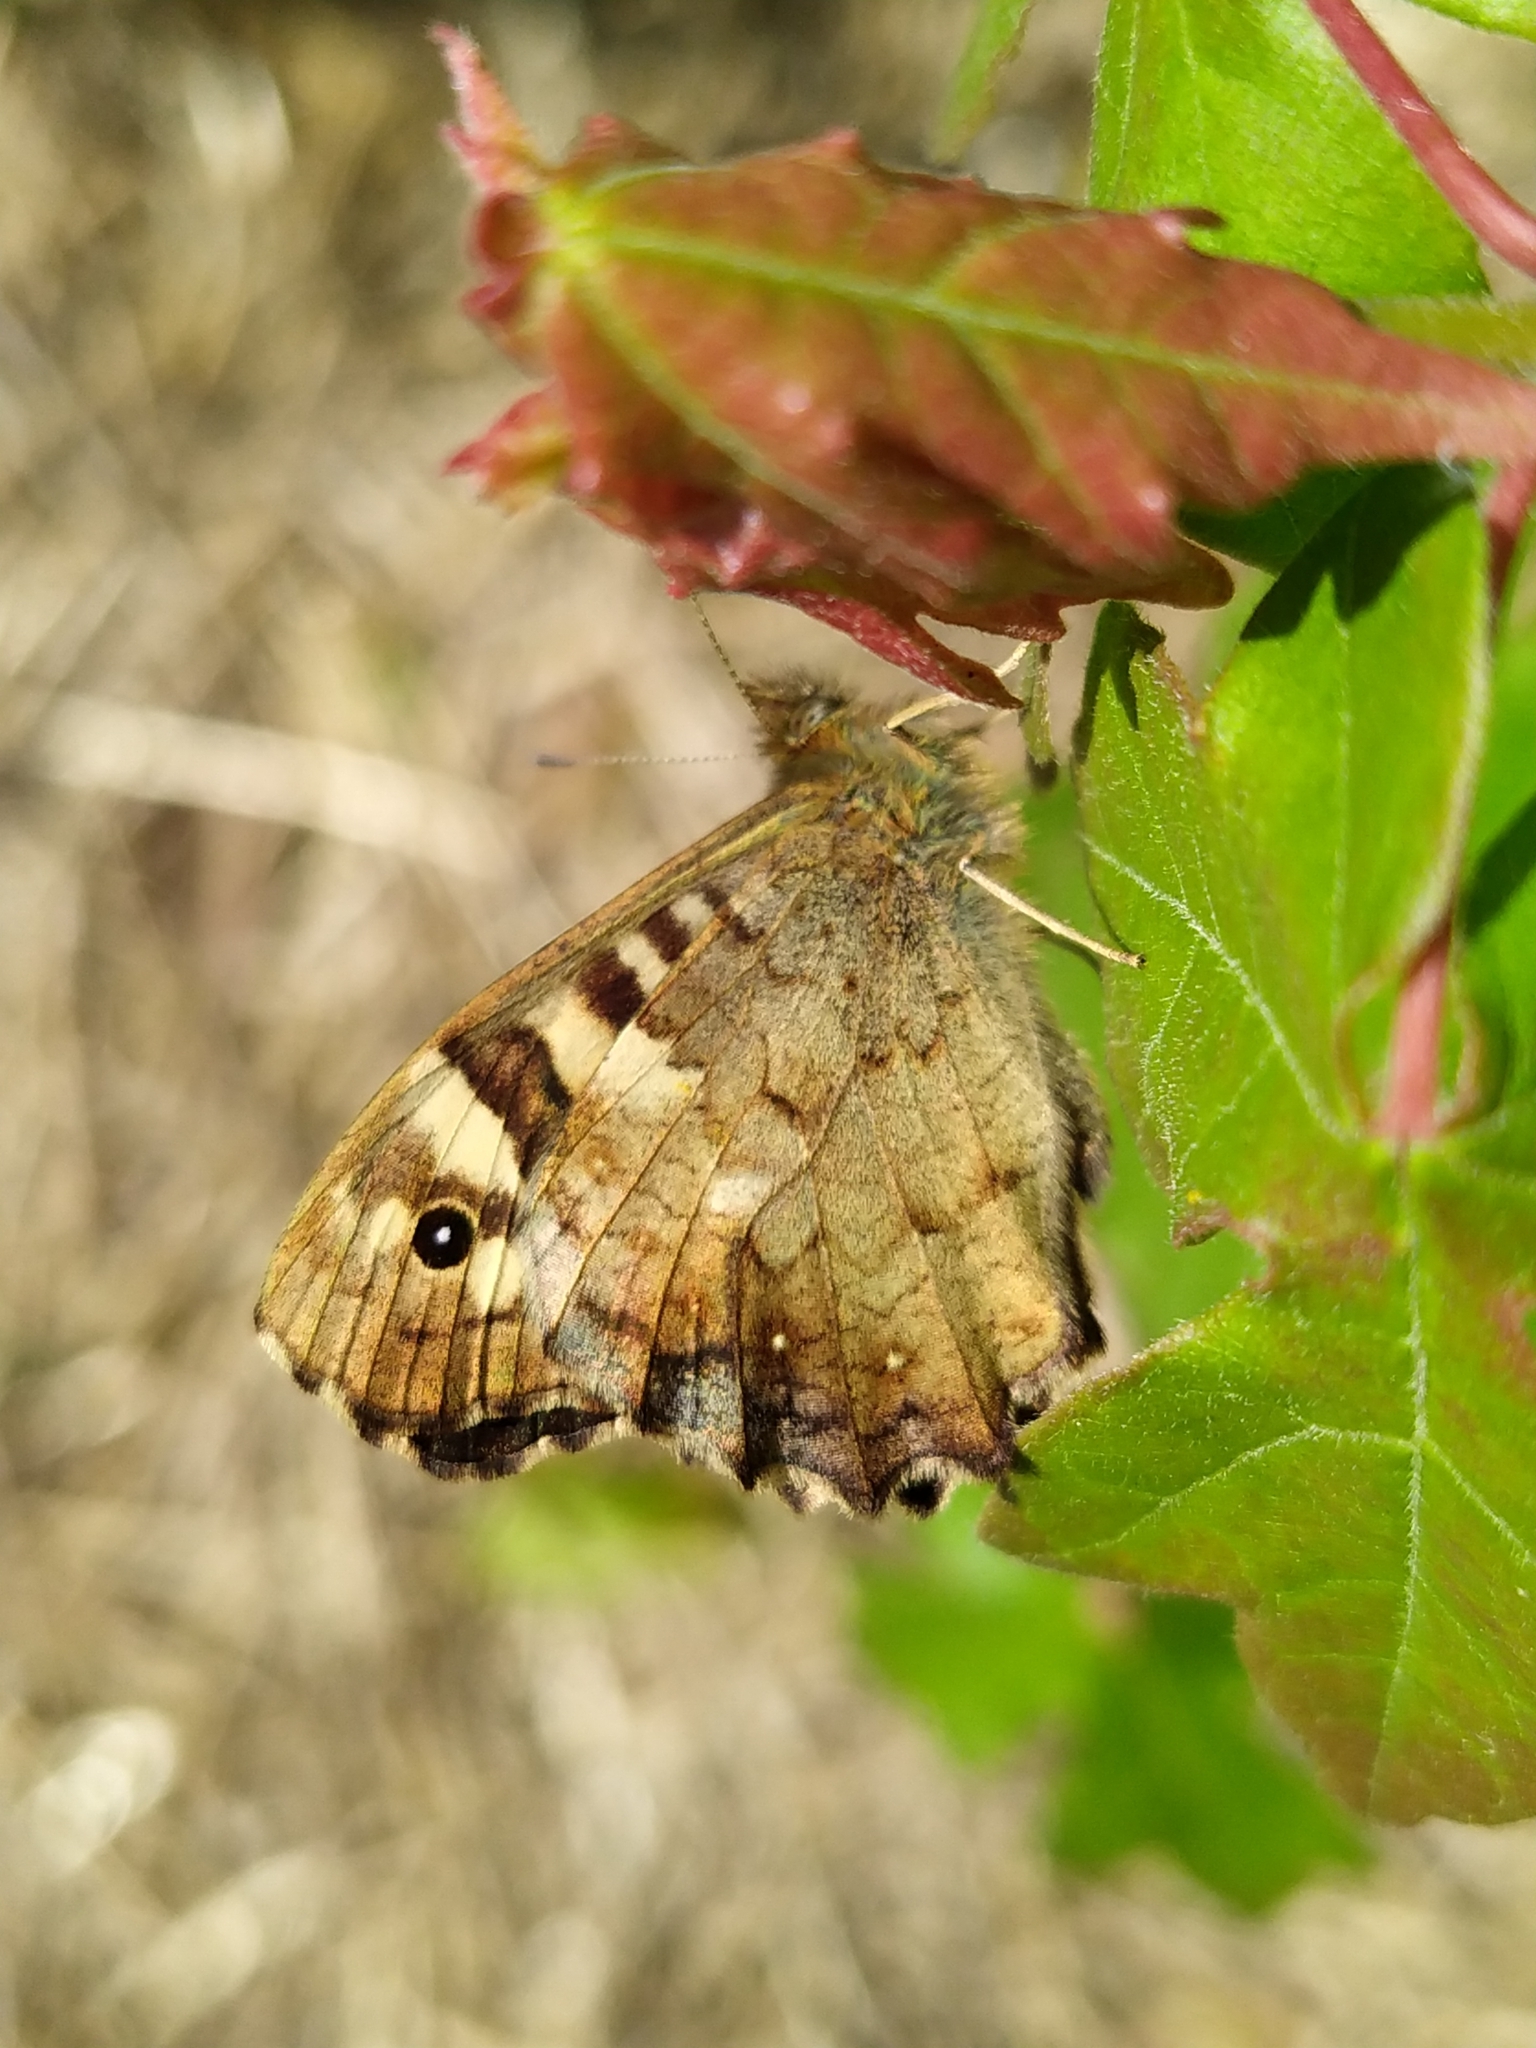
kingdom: Animalia
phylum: Arthropoda
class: Insecta
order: Lepidoptera
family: Nymphalidae
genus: Pararge
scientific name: Pararge aegeria
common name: Speckled wood
